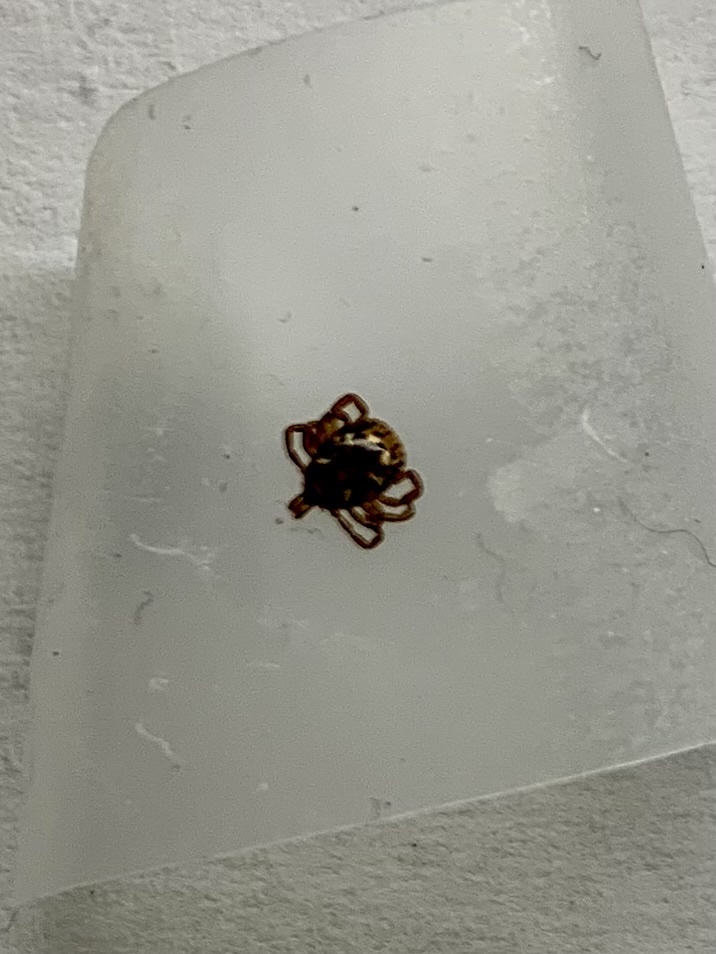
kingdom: Animalia
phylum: Arthropoda
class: Arachnida
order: Ixodida
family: Ixodidae
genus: Amblyomma
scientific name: Amblyomma americanum
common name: Lone star tick
